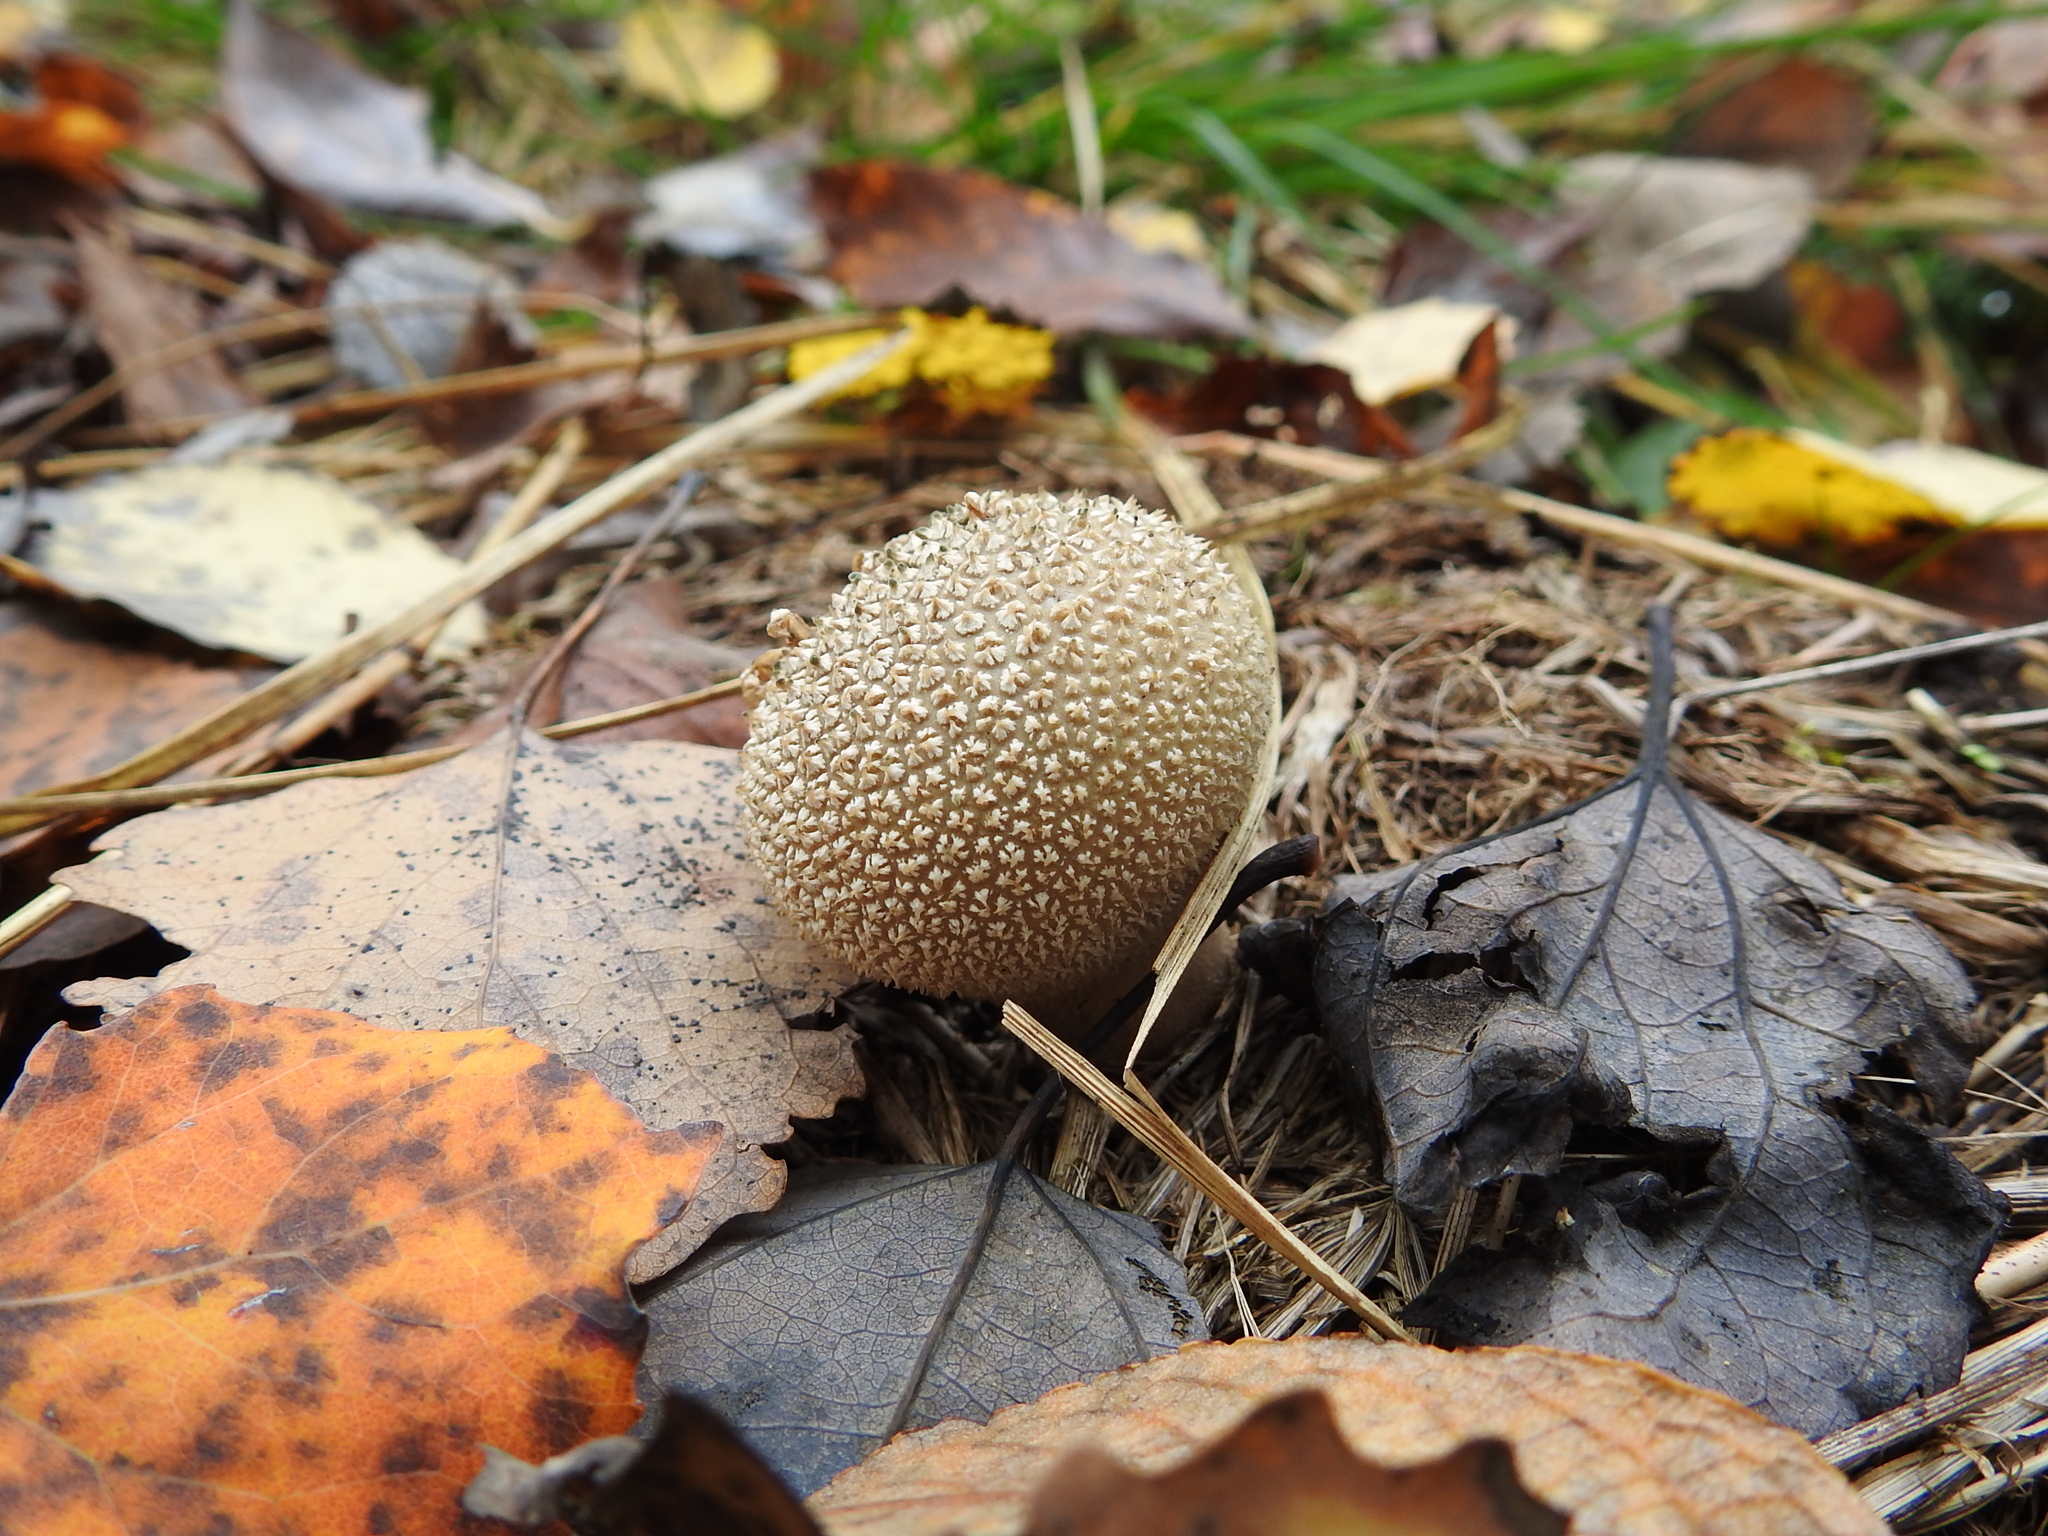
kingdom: Fungi
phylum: Basidiomycota
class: Agaricomycetes
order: Agaricales
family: Lycoperdaceae
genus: Lycoperdon
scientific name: Lycoperdon perlatum
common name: Common puffball
